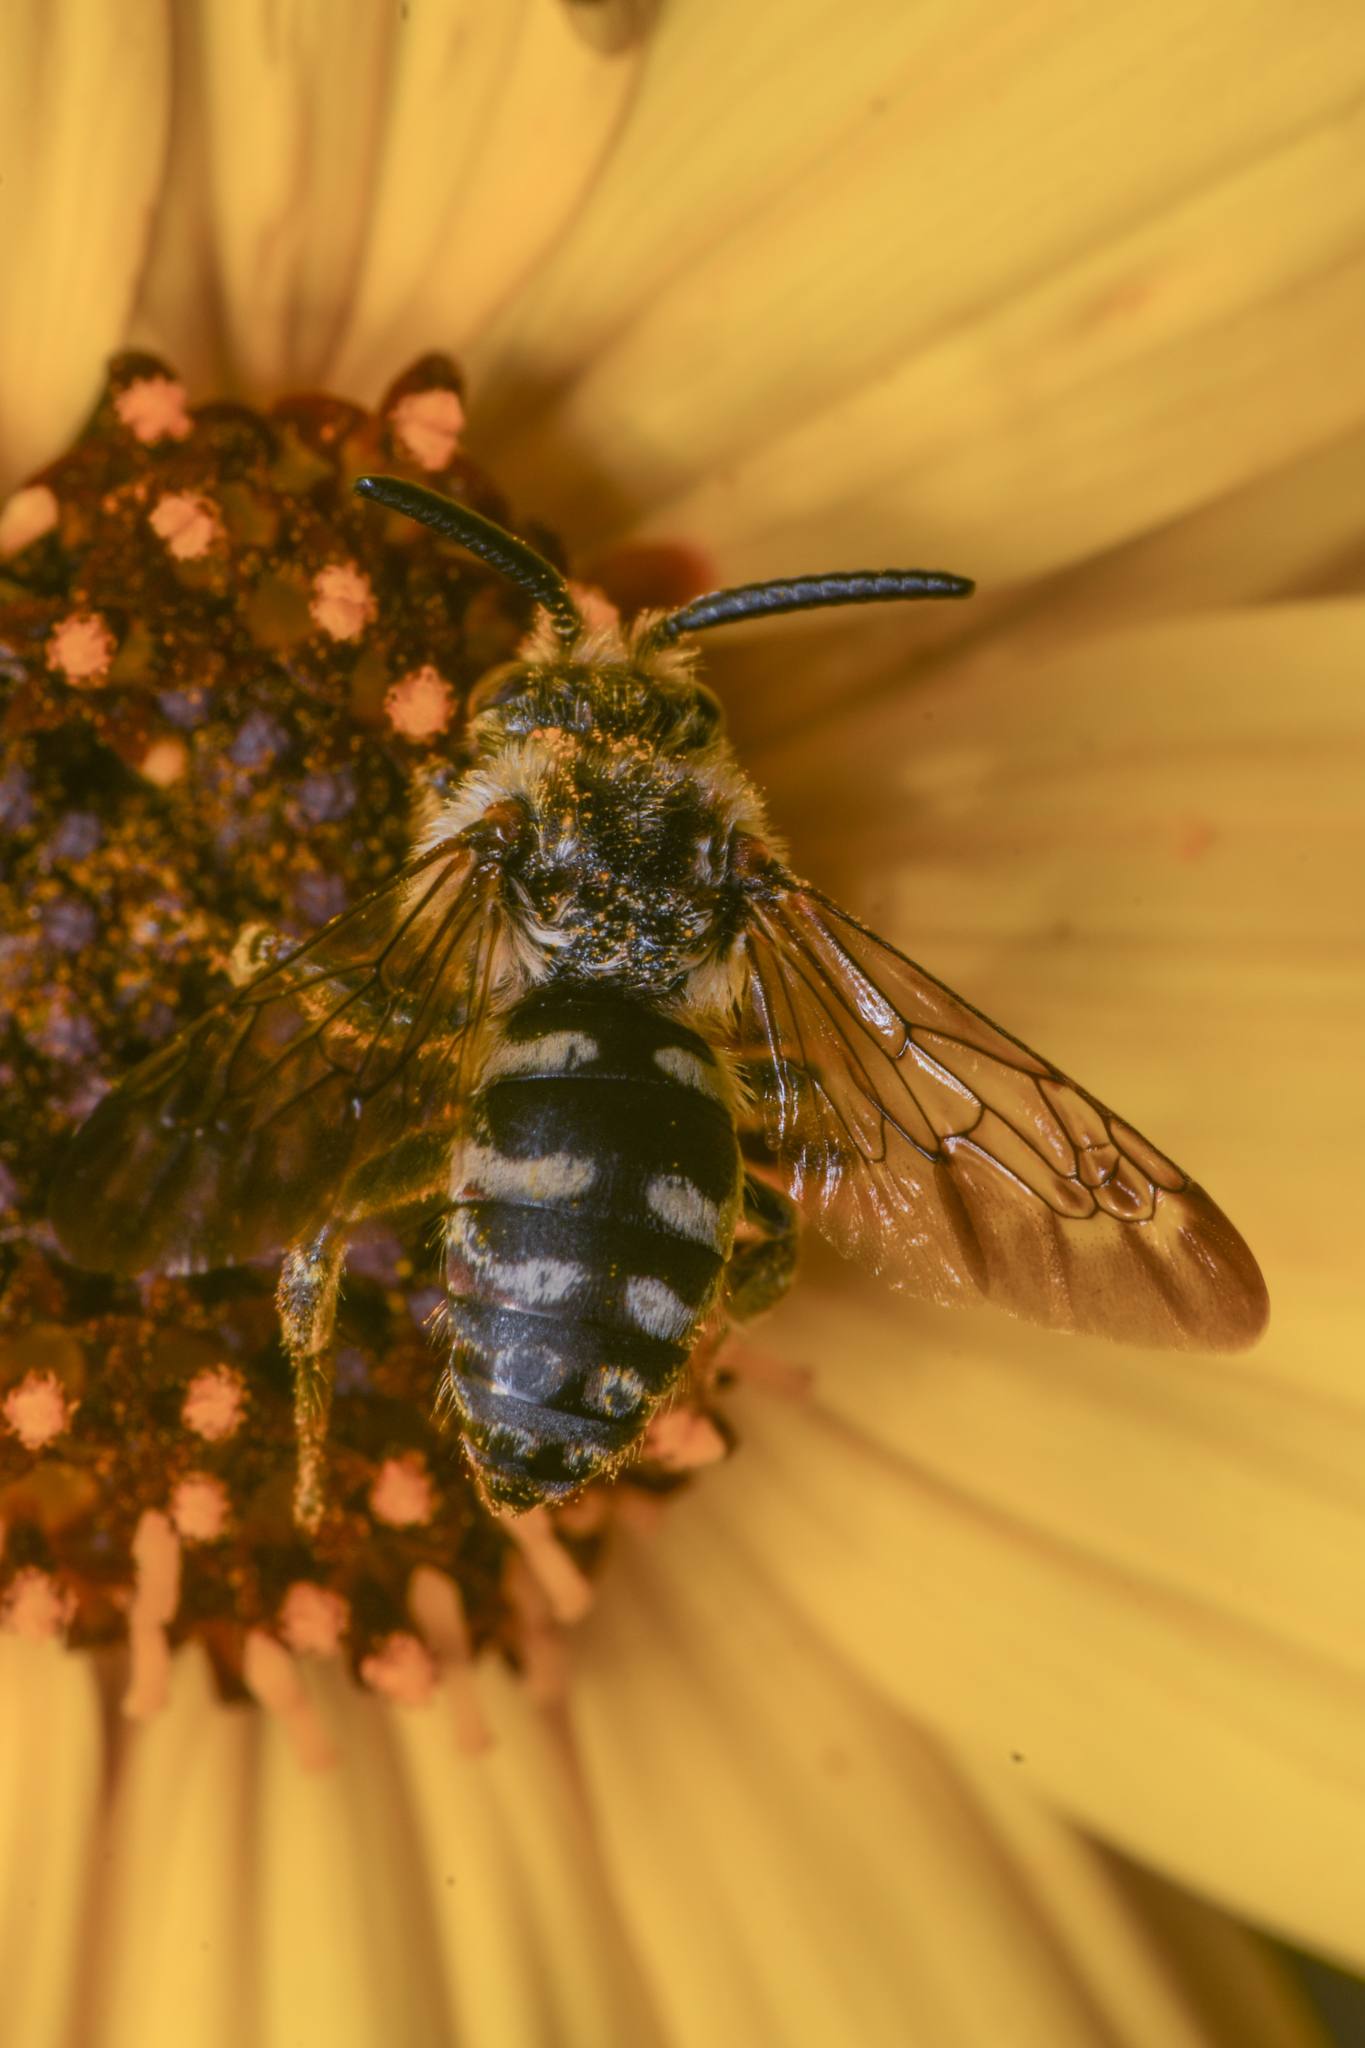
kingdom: Animalia
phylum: Arthropoda
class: Insecta
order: Hymenoptera
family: Apidae
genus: Brachymelecta
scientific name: Brachymelecta californica
